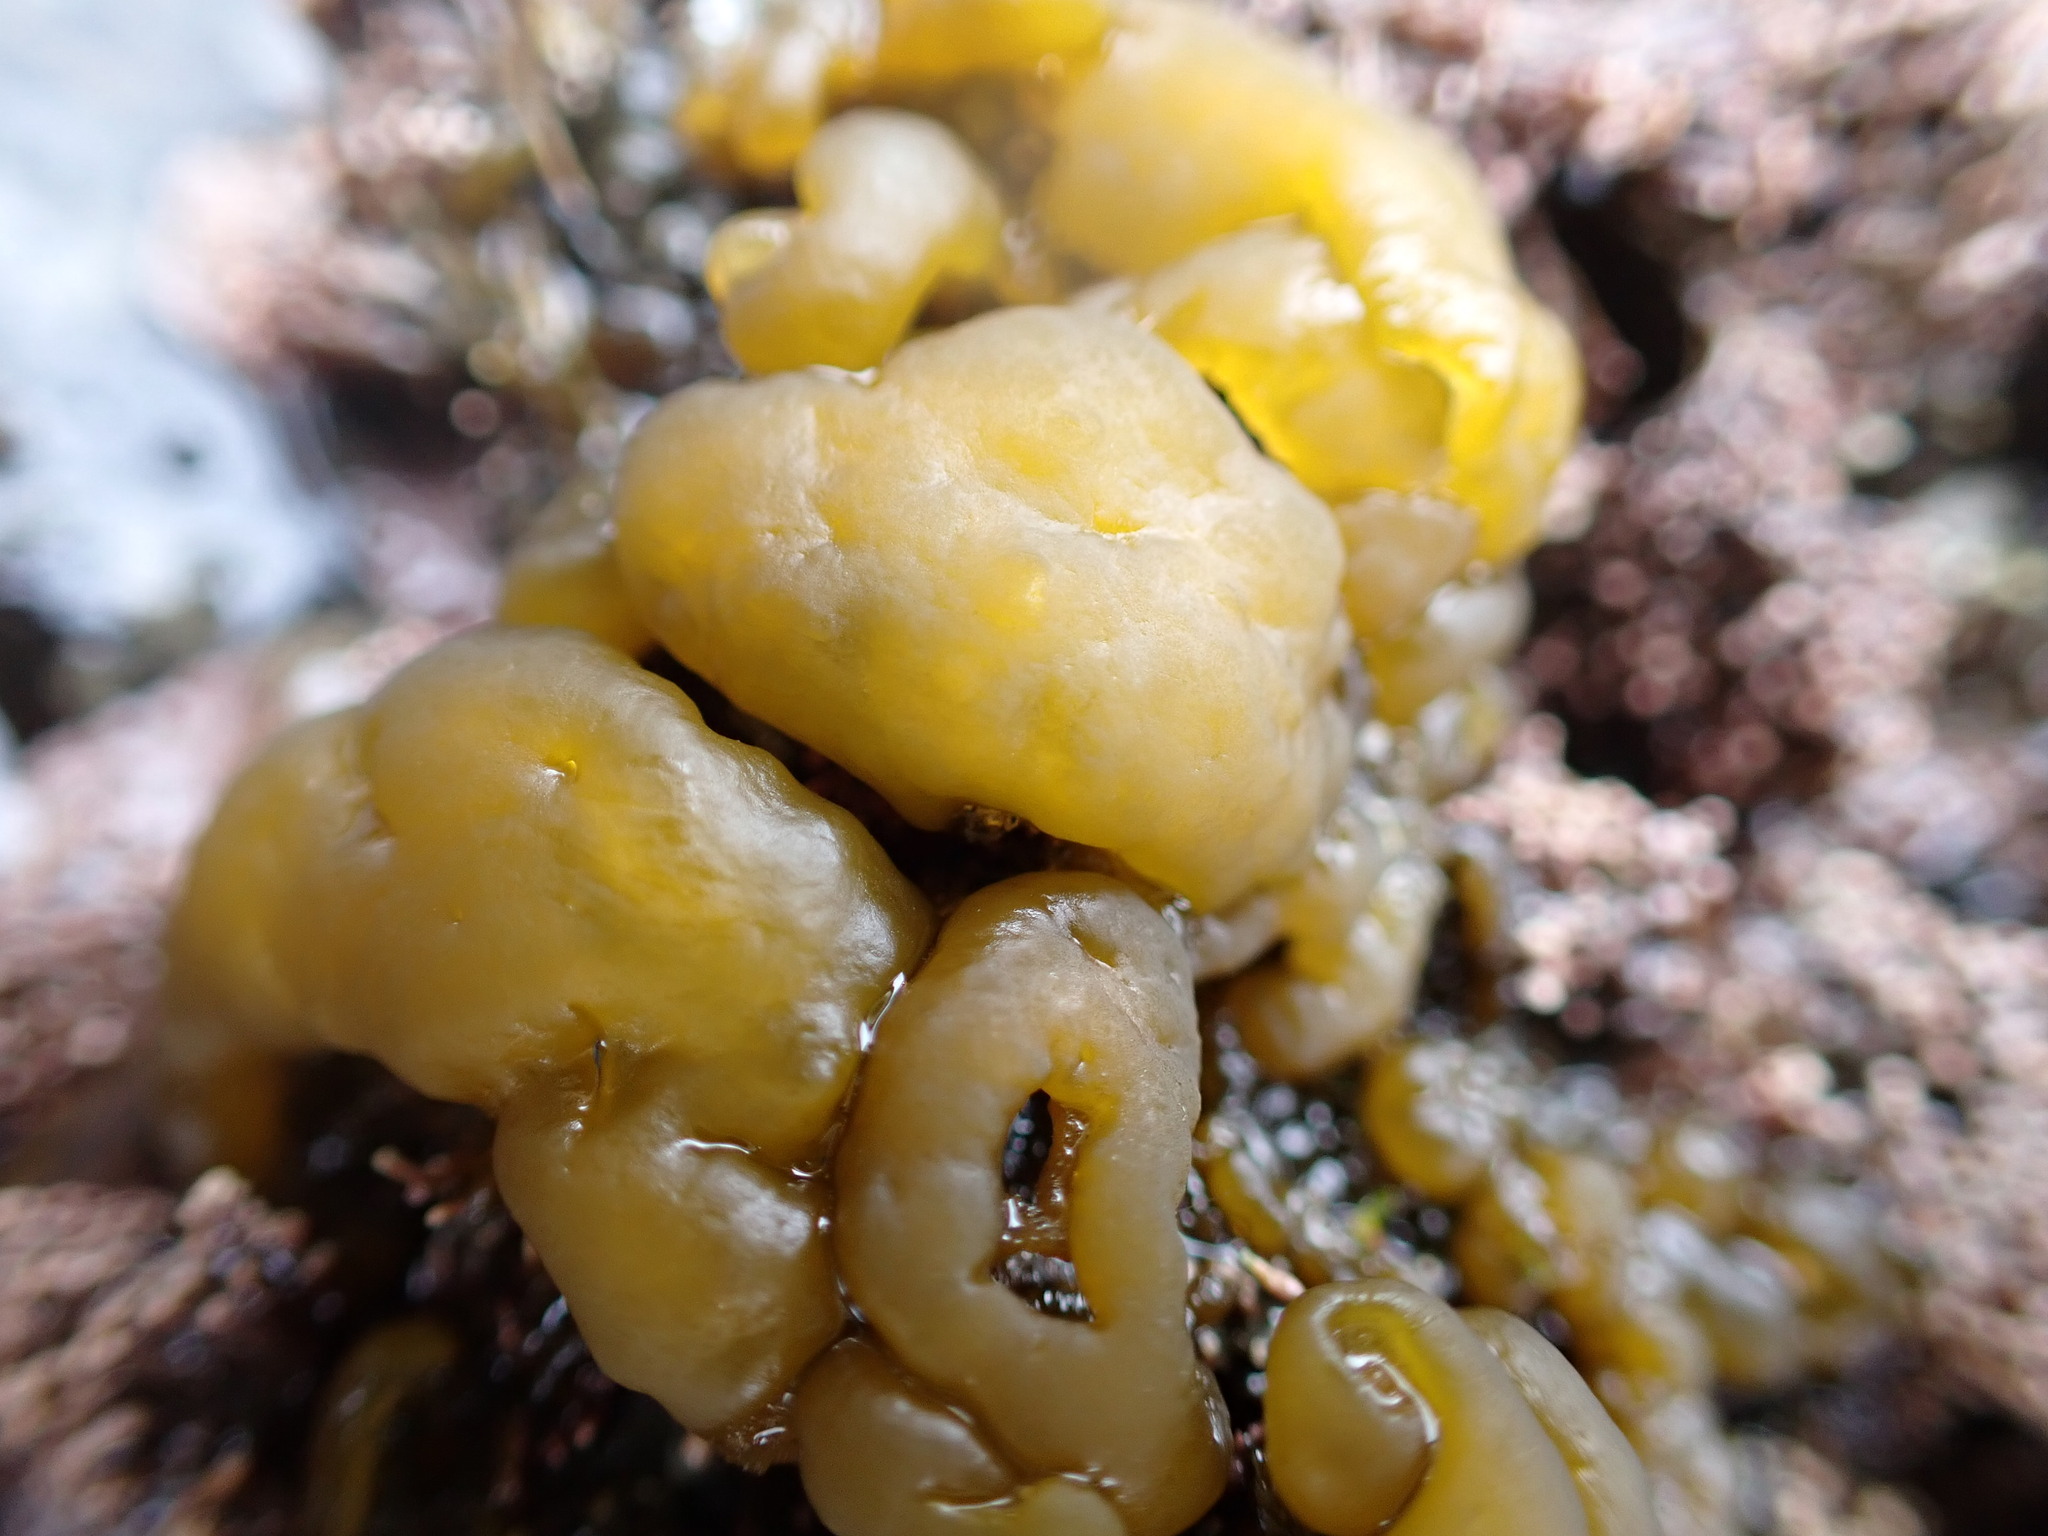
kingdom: Chromista
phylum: Ochrophyta
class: Phaeophyceae
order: Ectocarpales
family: Chordariaceae
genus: Leathesia
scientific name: Leathesia marina
